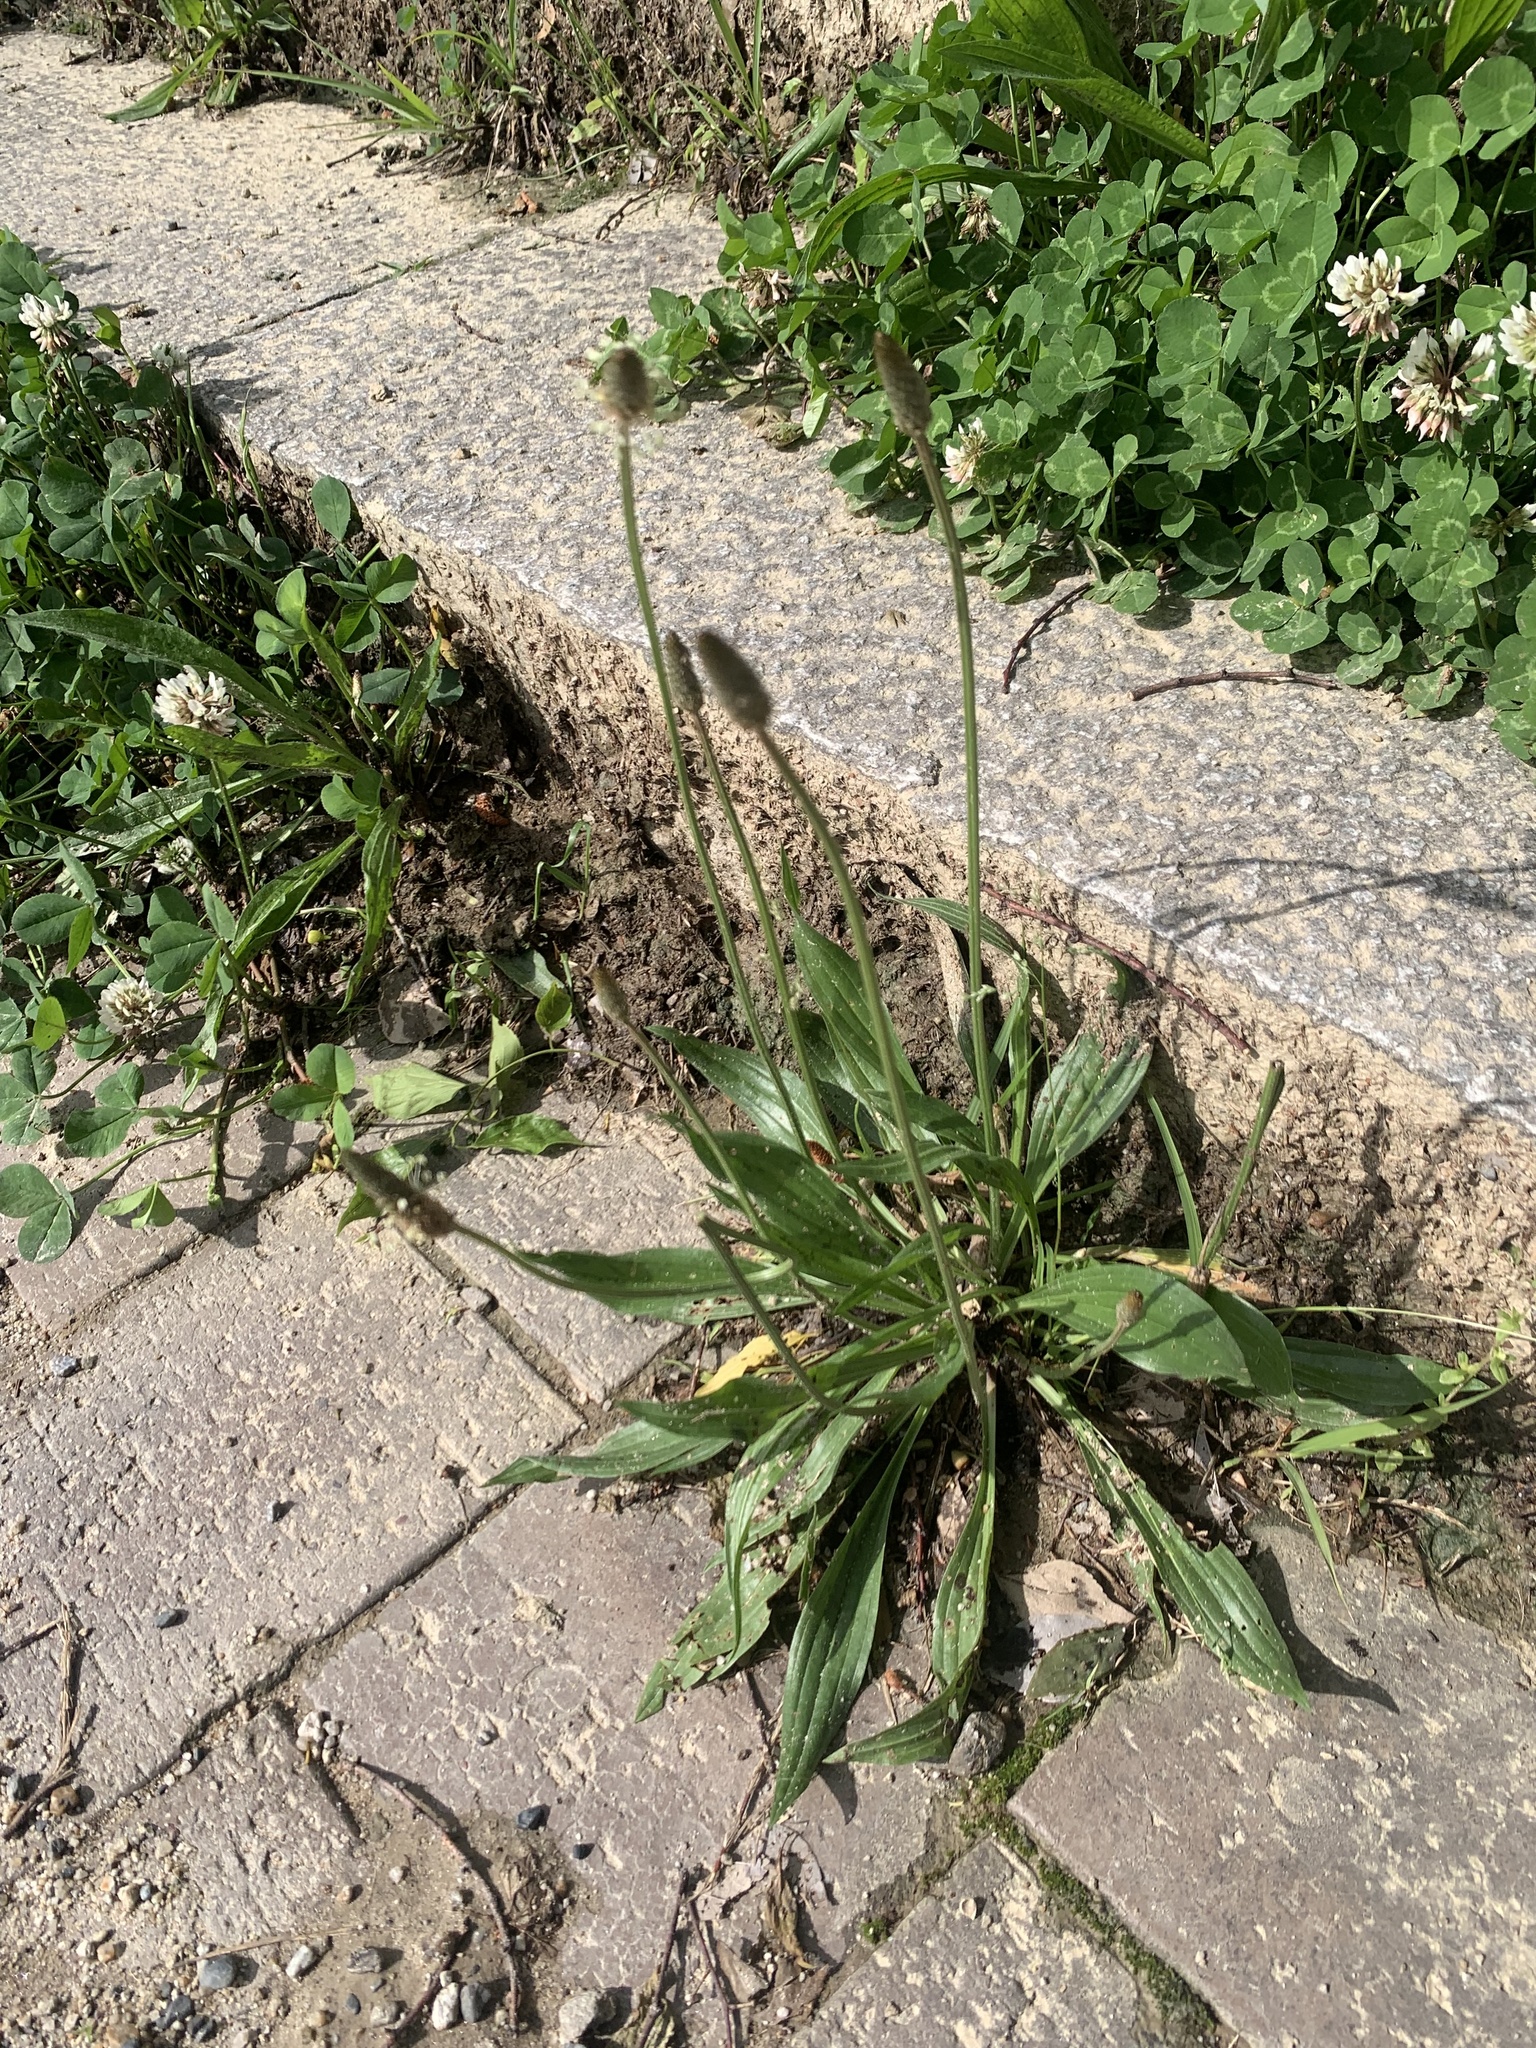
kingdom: Plantae
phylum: Tracheophyta
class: Magnoliopsida
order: Lamiales
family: Plantaginaceae
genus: Plantago
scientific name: Plantago lanceolata
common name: Ribwort plantain
